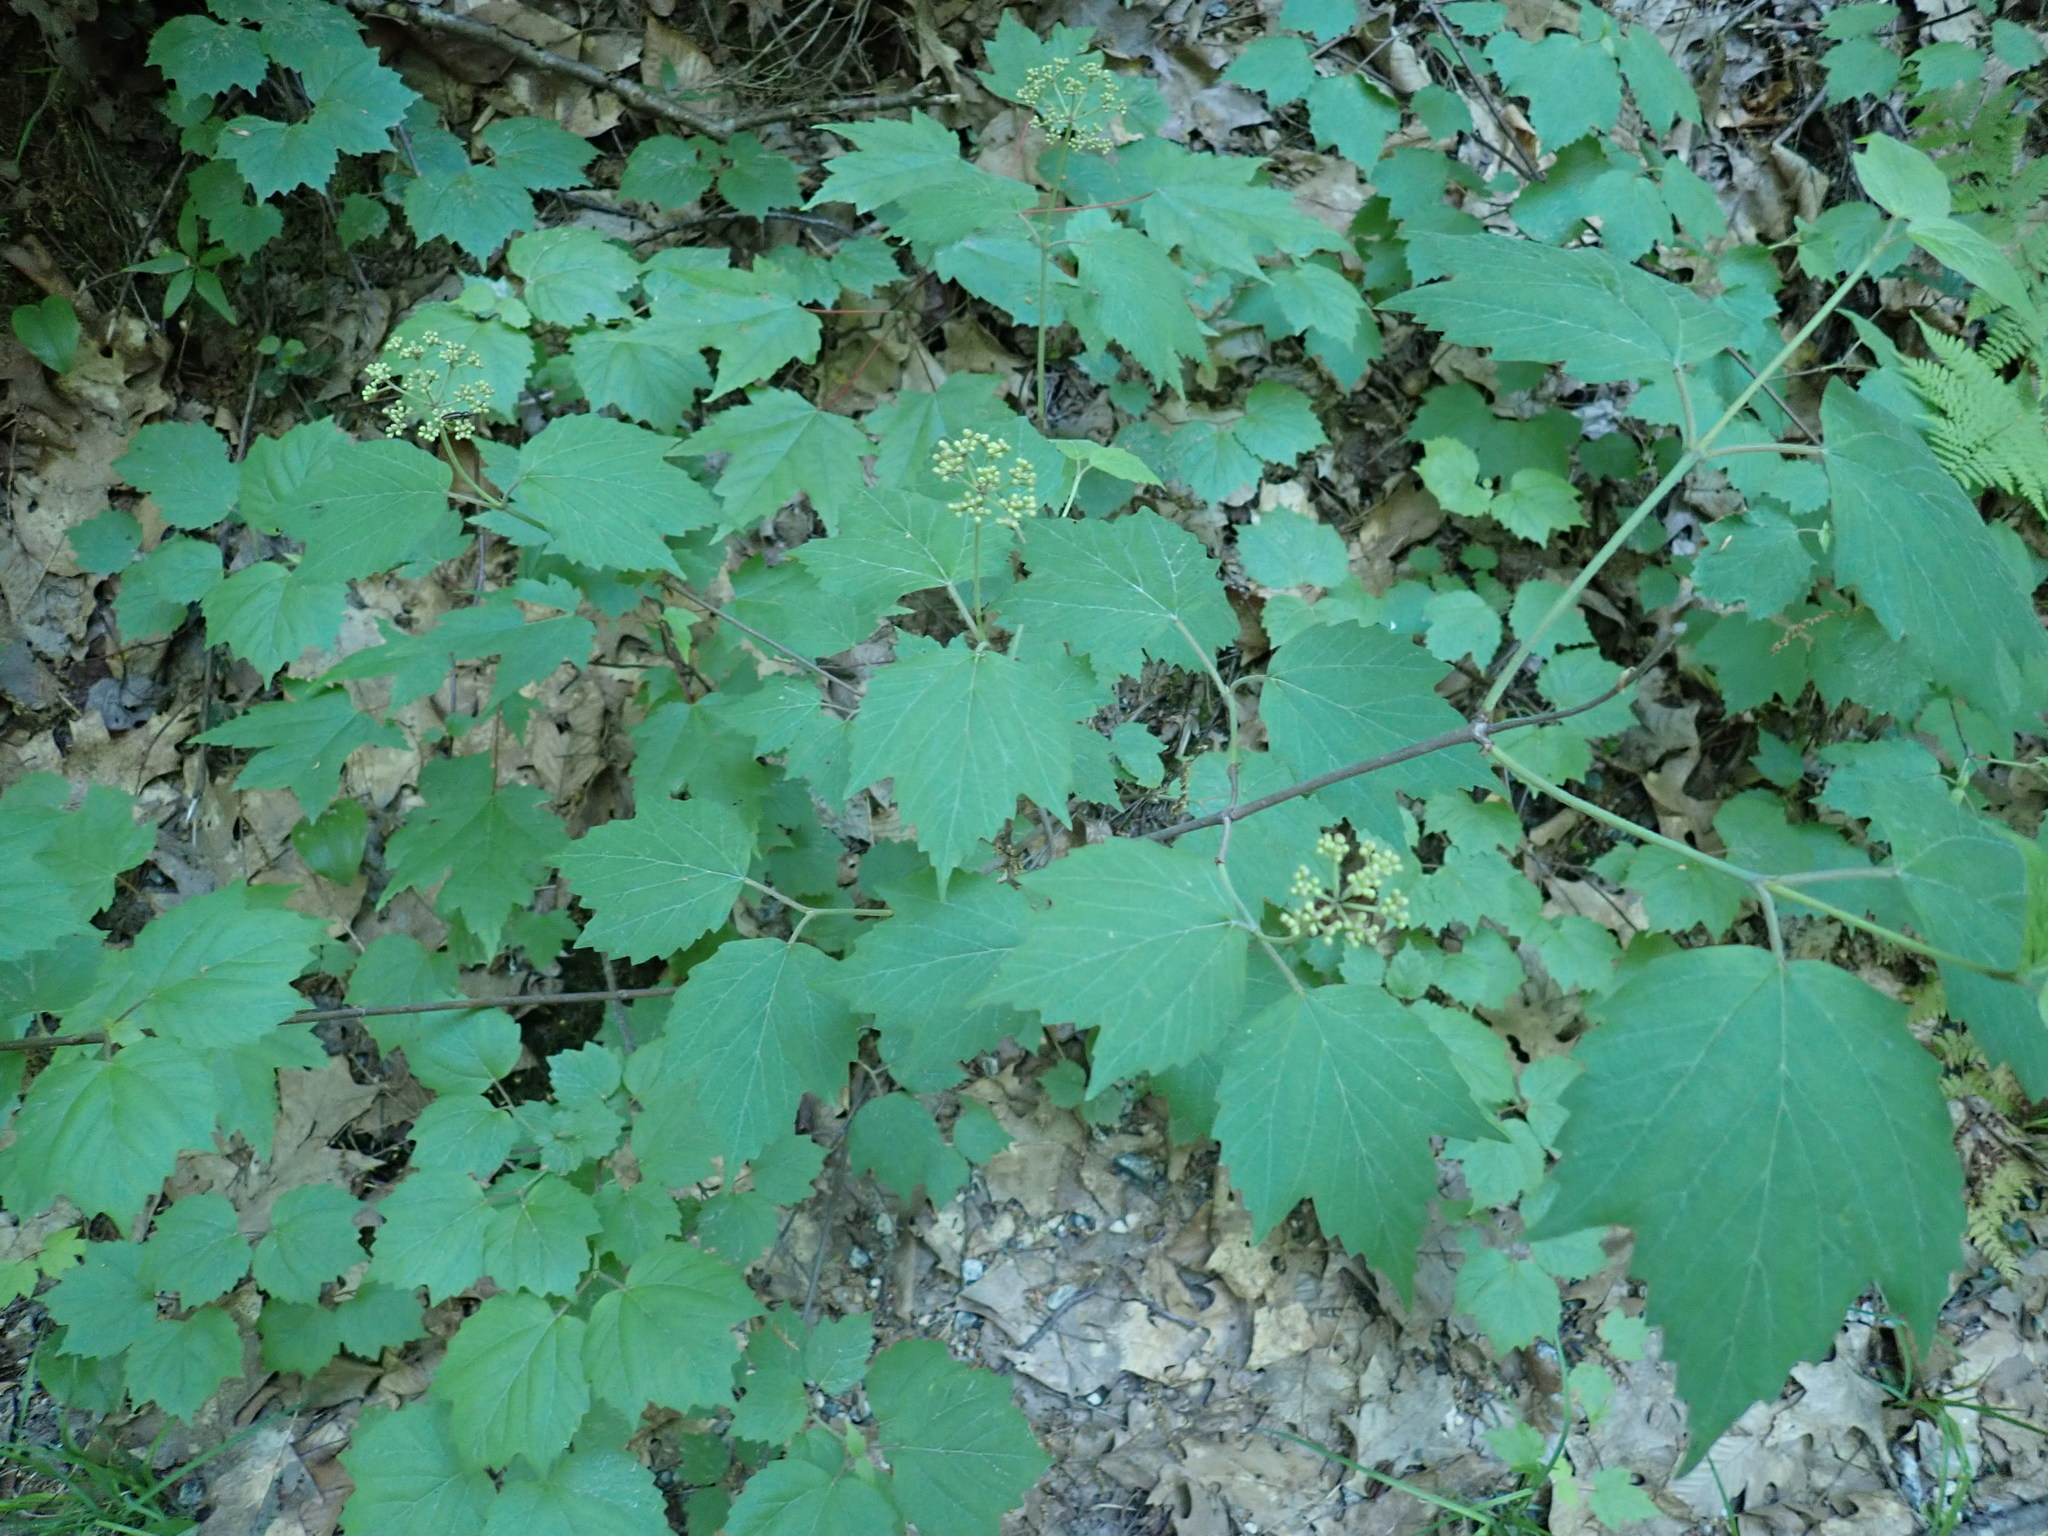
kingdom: Plantae
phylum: Tracheophyta
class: Magnoliopsida
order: Dipsacales
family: Viburnaceae
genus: Viburnum
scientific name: Viburnum acerifolium
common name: Dockmackie
